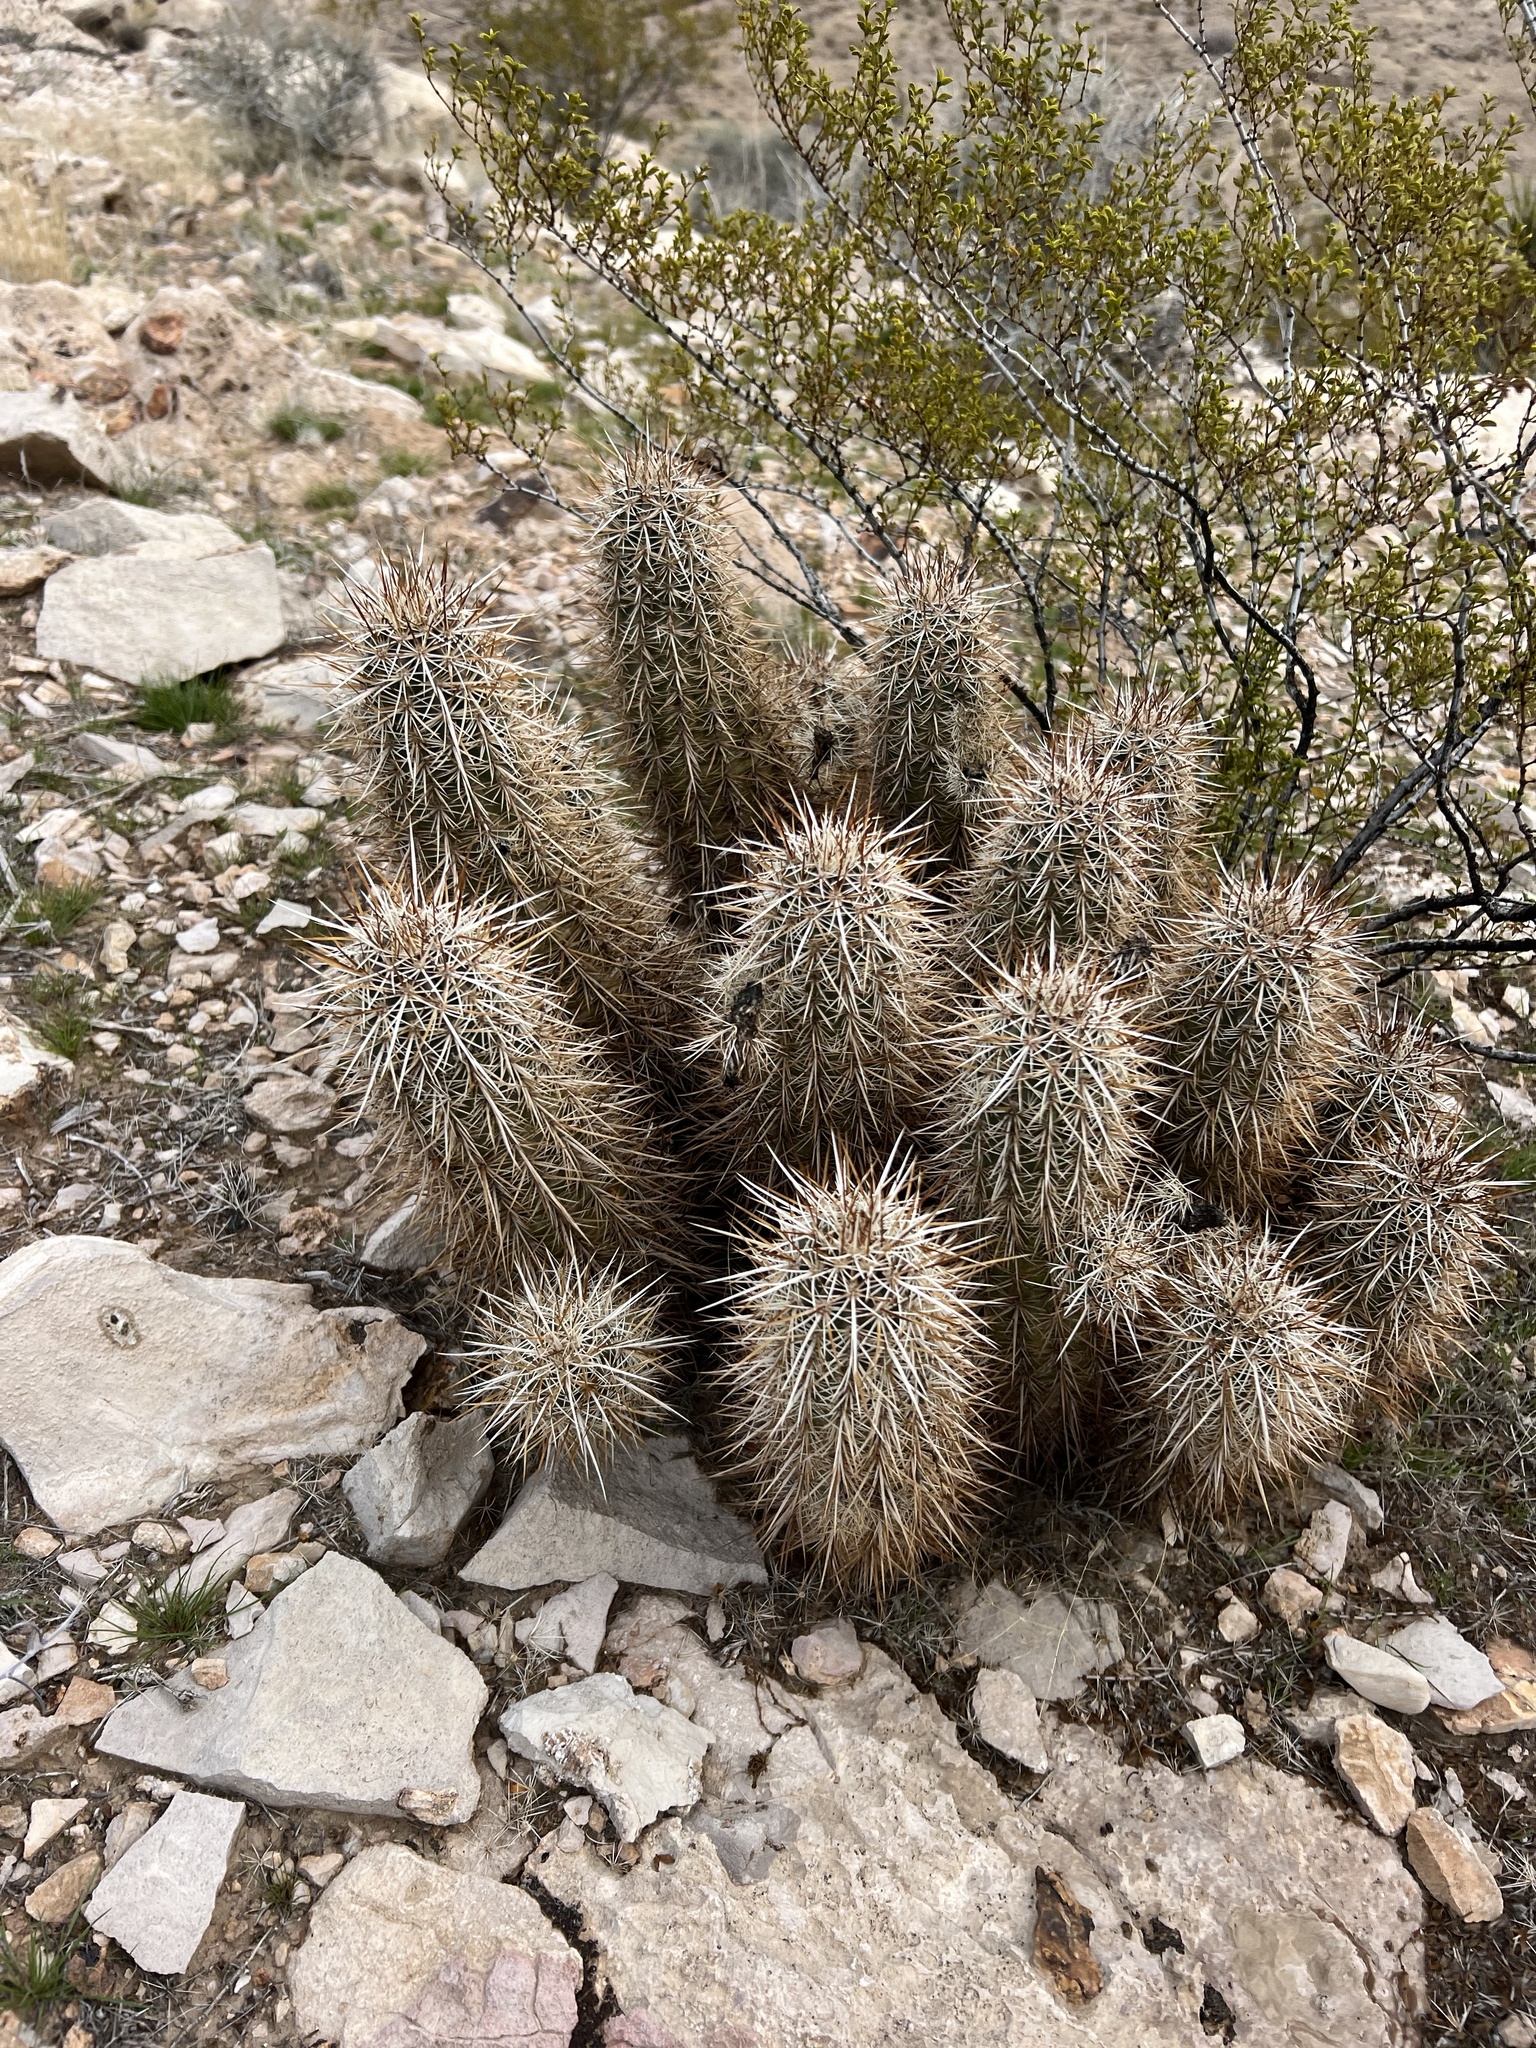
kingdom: Plantae
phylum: Tracheophyta
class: Magnoliopsida
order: Caryophyllales
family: Cactaceae
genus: Echinocereus
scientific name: Echinocereus engelmannii
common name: Engelmann's hedgehog cactus
